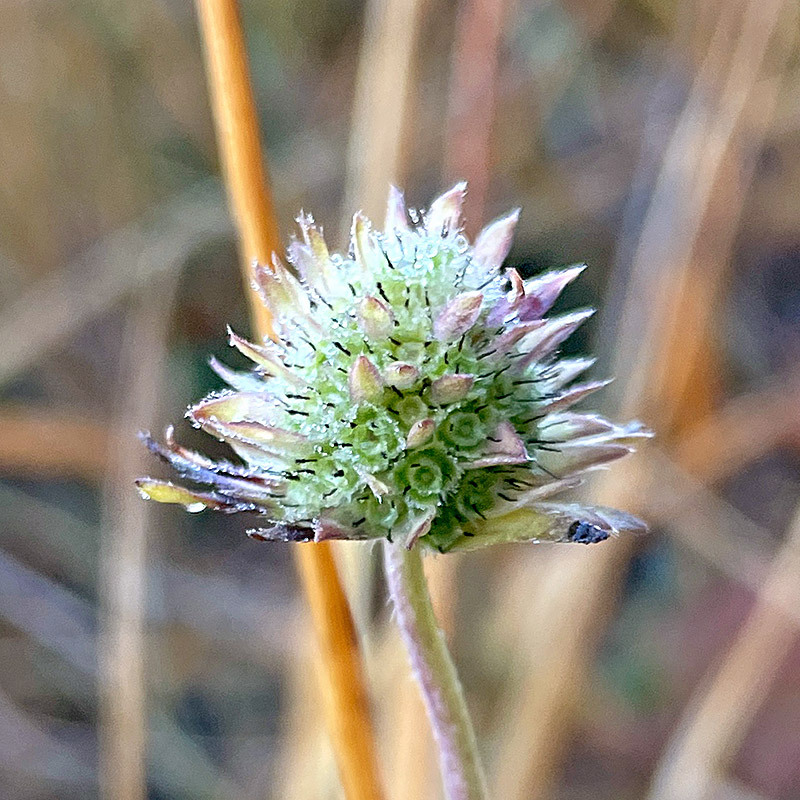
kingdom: Plantae
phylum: Tracheophyta
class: Magnoliopsida
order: Dipsacales
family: Caprifoliaceae
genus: Succisa
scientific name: Succisa pratensis
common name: Devil's-bit
